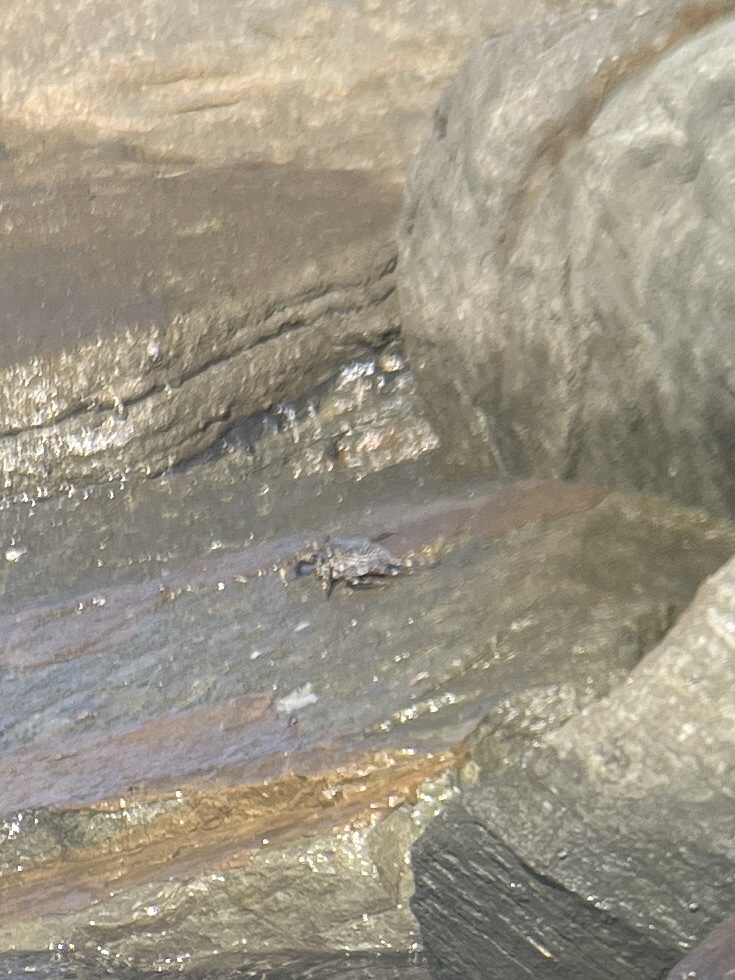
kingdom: Animalia
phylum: Arthropoda
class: Malacostraca
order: Decapoda
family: Grapsidae
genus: Grapsus
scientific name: Grapsus grapsus
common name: Sally lightfoot
